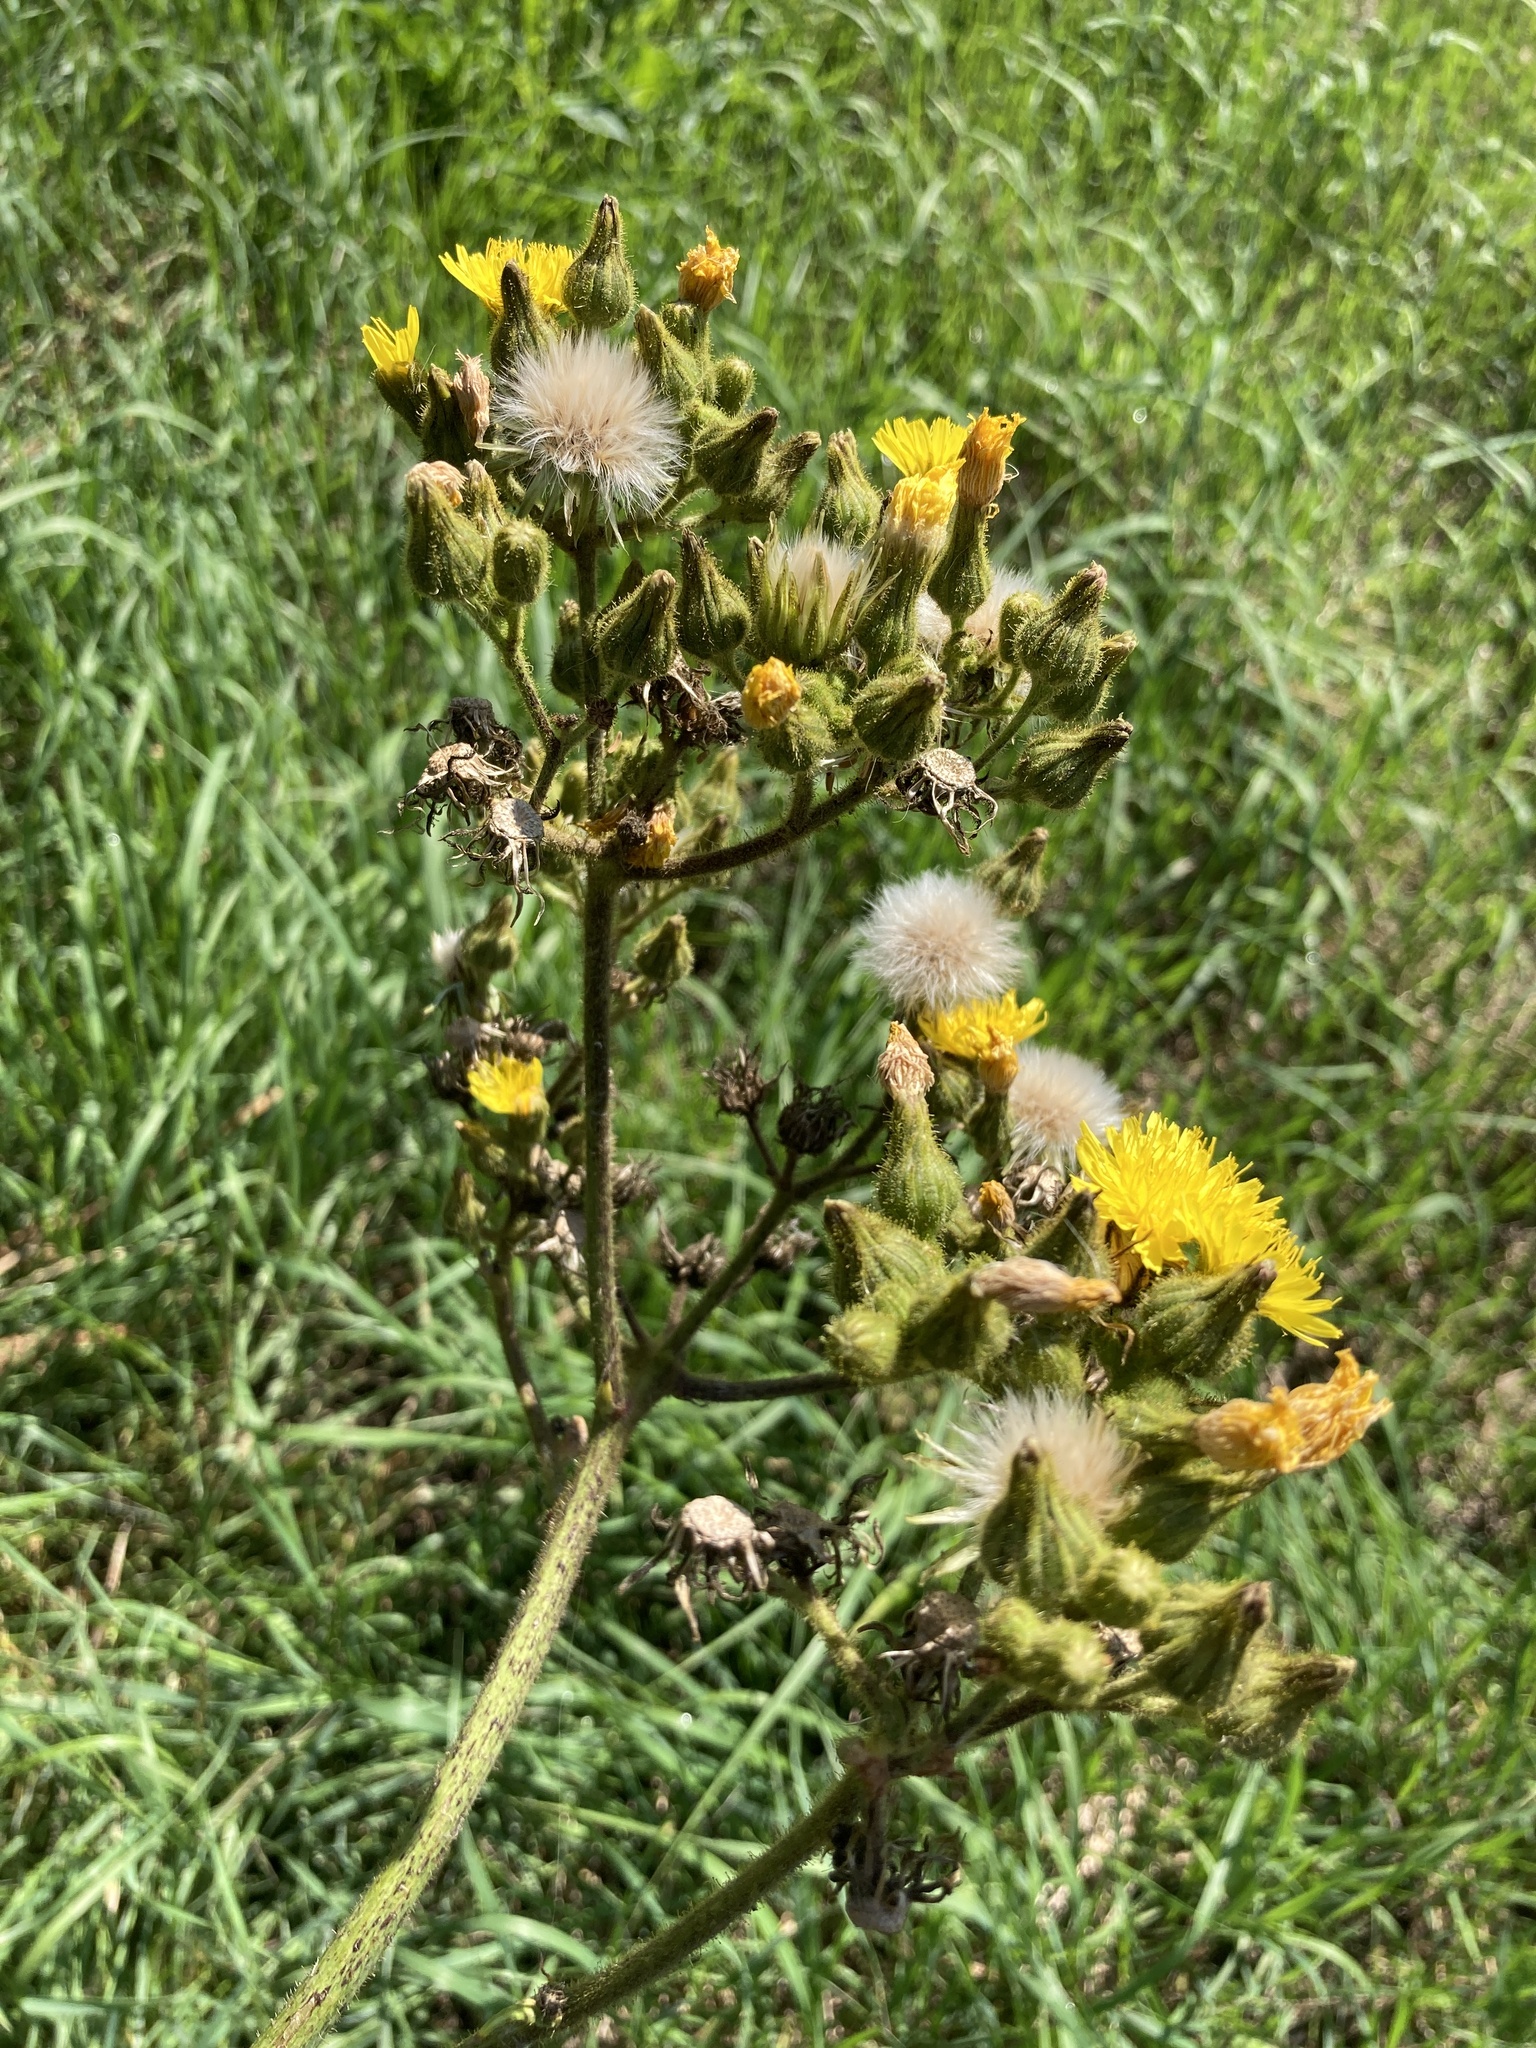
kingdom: Plantae
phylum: Tracheophyta
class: Magnoliopsida
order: Asterales
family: Asteraceae
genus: Sonchus
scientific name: Sonchus palustris
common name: Marsh sow-thistle
